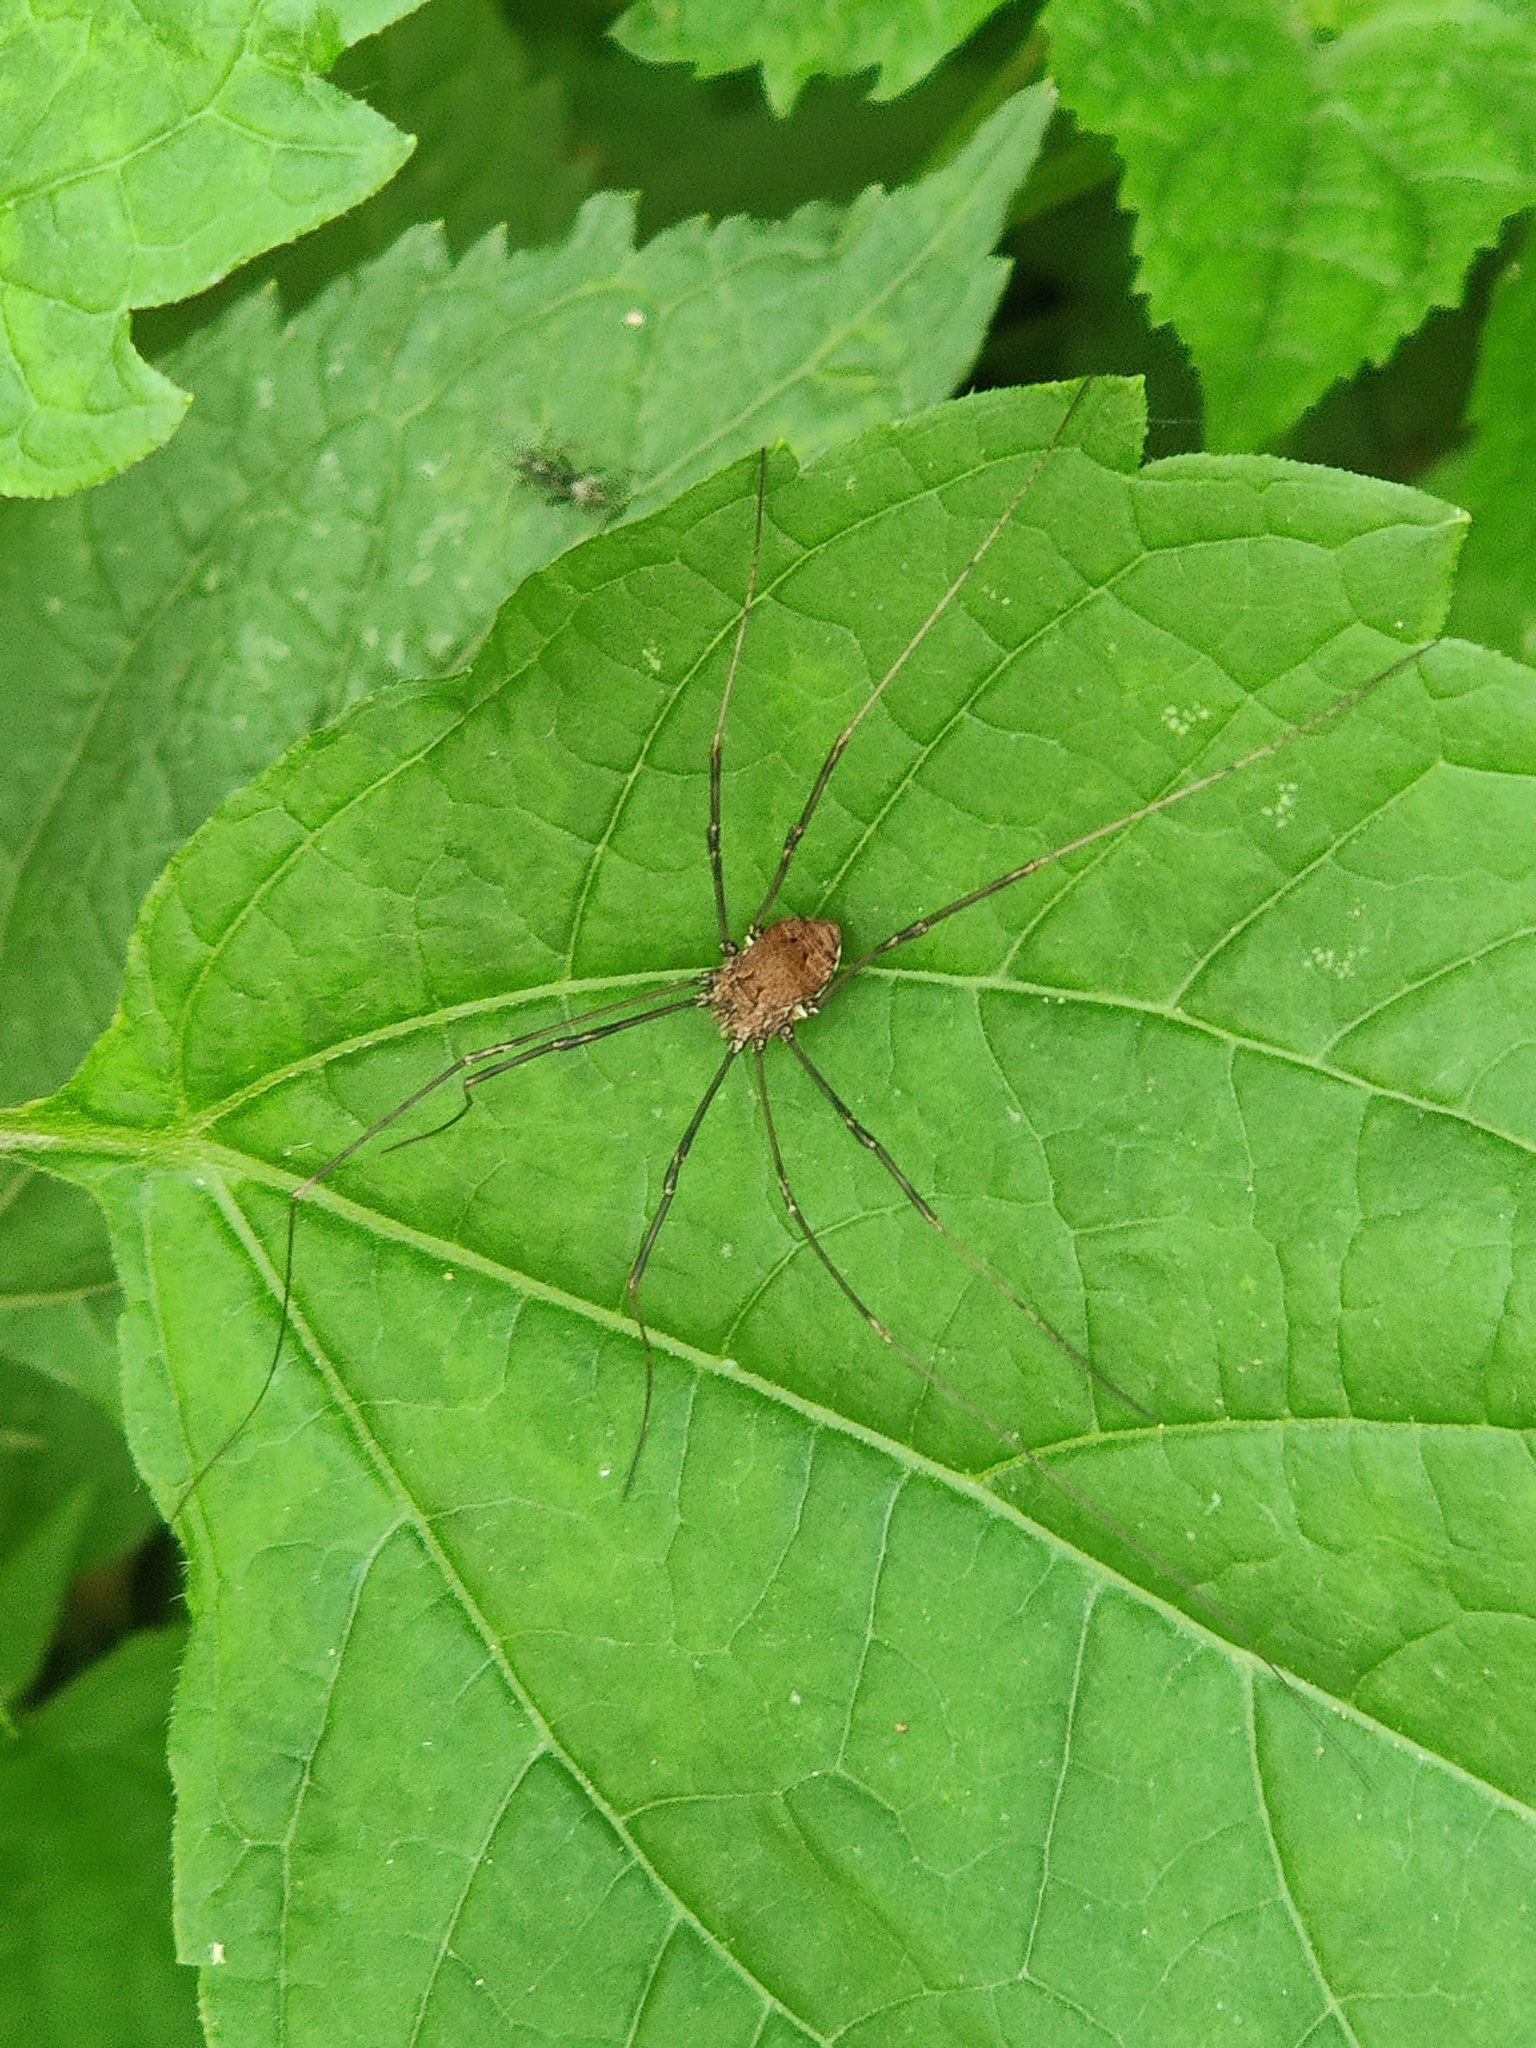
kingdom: Animalia
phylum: Arthropoda
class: Arachnida
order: Opiliones
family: Sclerosomatidae
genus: Leiobunum
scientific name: Leiobunum verrucosum
